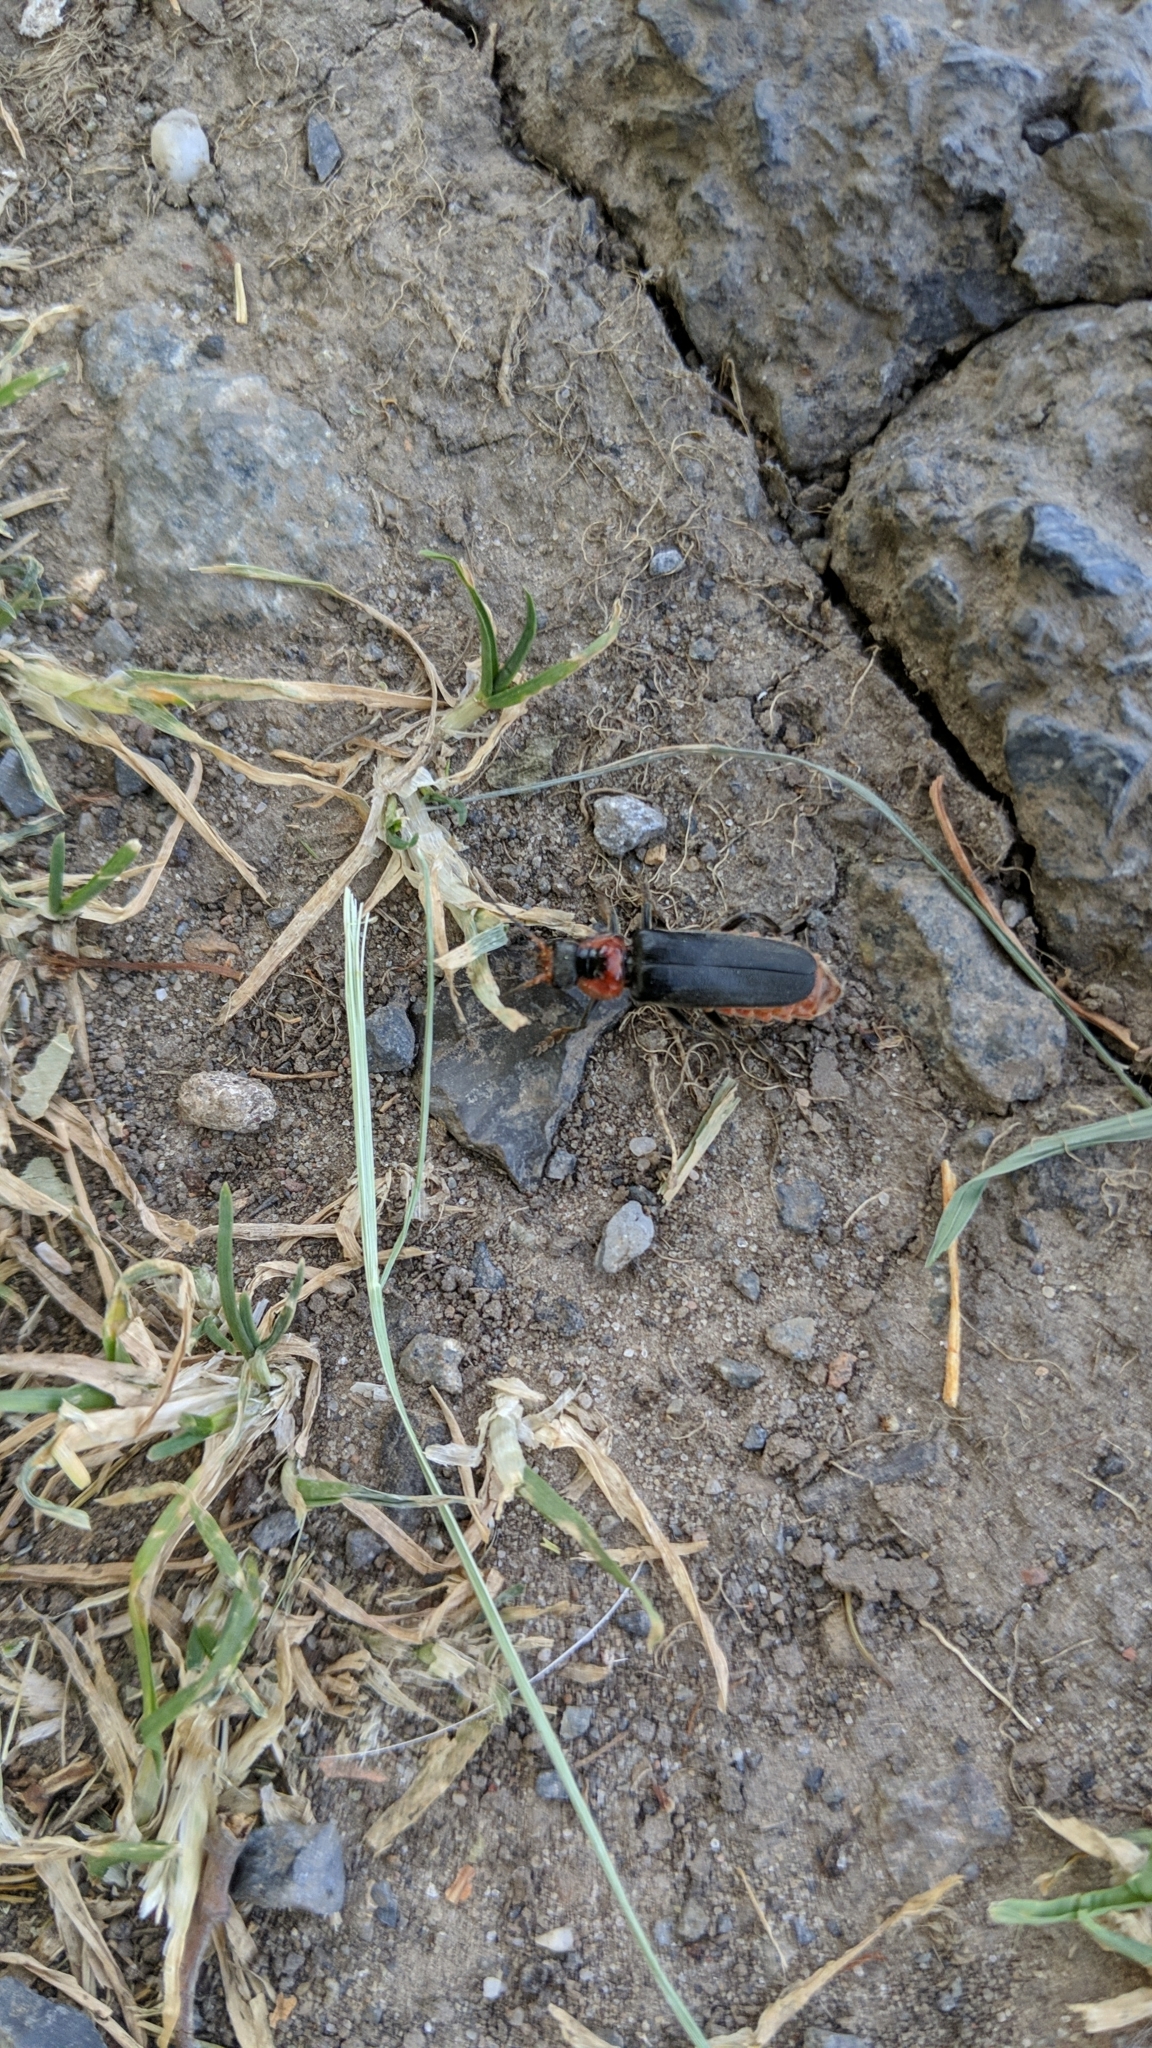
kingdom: Animalia
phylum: Arthropoda
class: Insecta
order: Coleoptera
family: Cantharidae
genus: Cantharis
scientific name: Cantharis fusca
